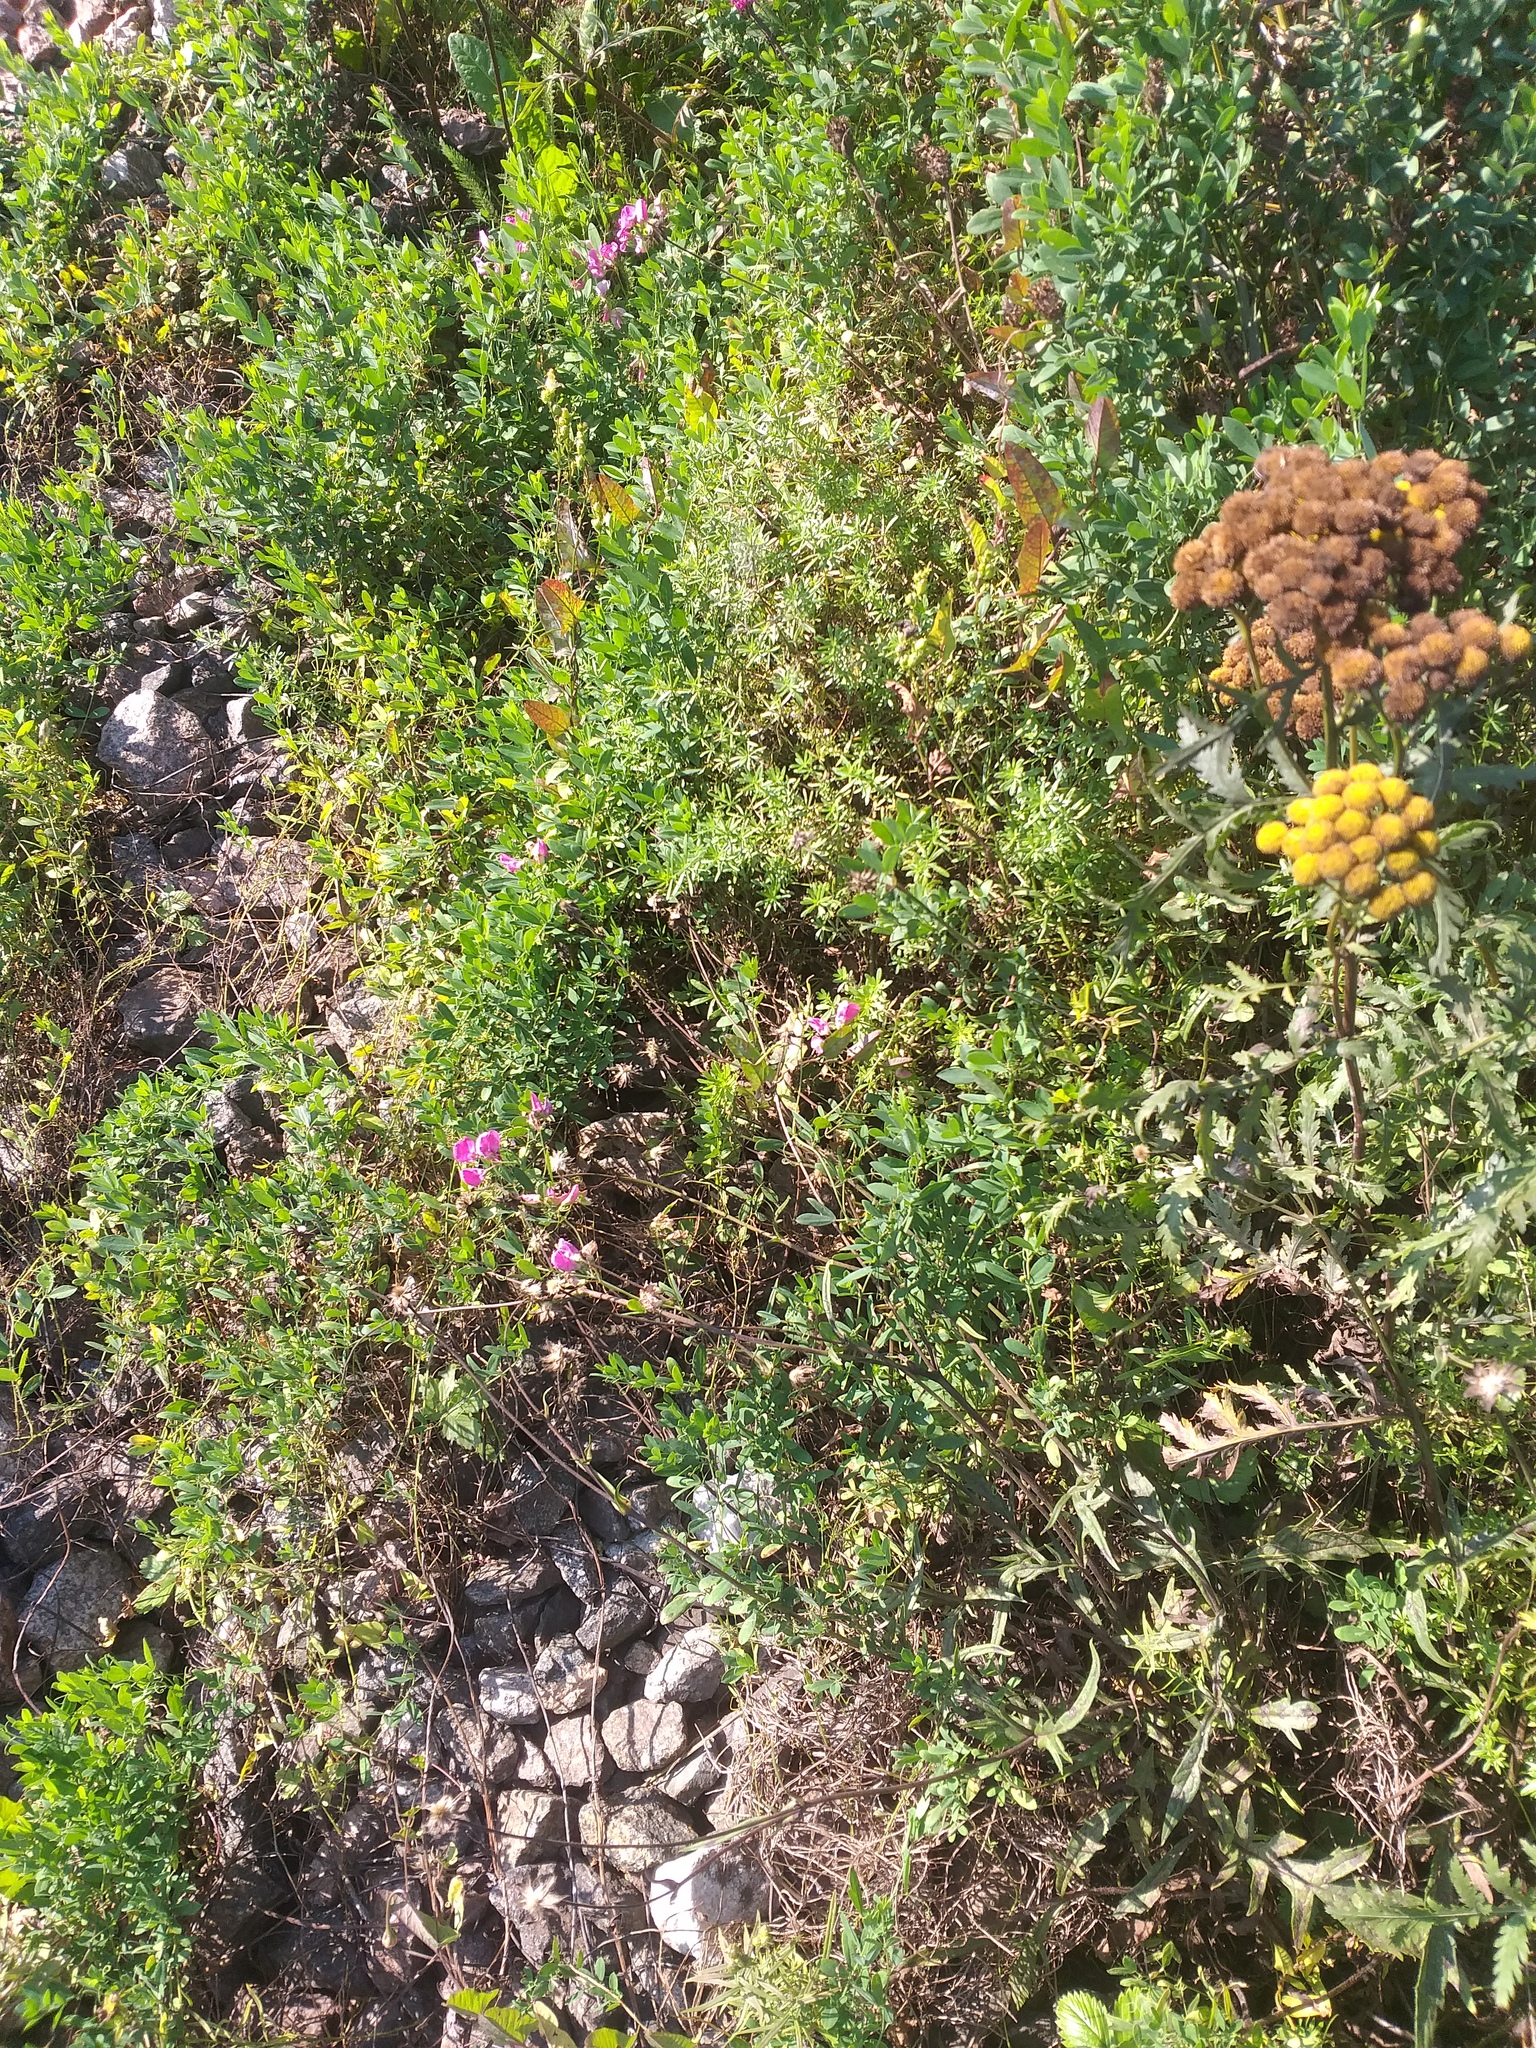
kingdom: Plantae
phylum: Tracheophyta
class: Magnoliopsida
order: Fabales
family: Fabaceae
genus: Lathyrus
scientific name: Lathyrus tuberosus
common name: Tuberous pea
